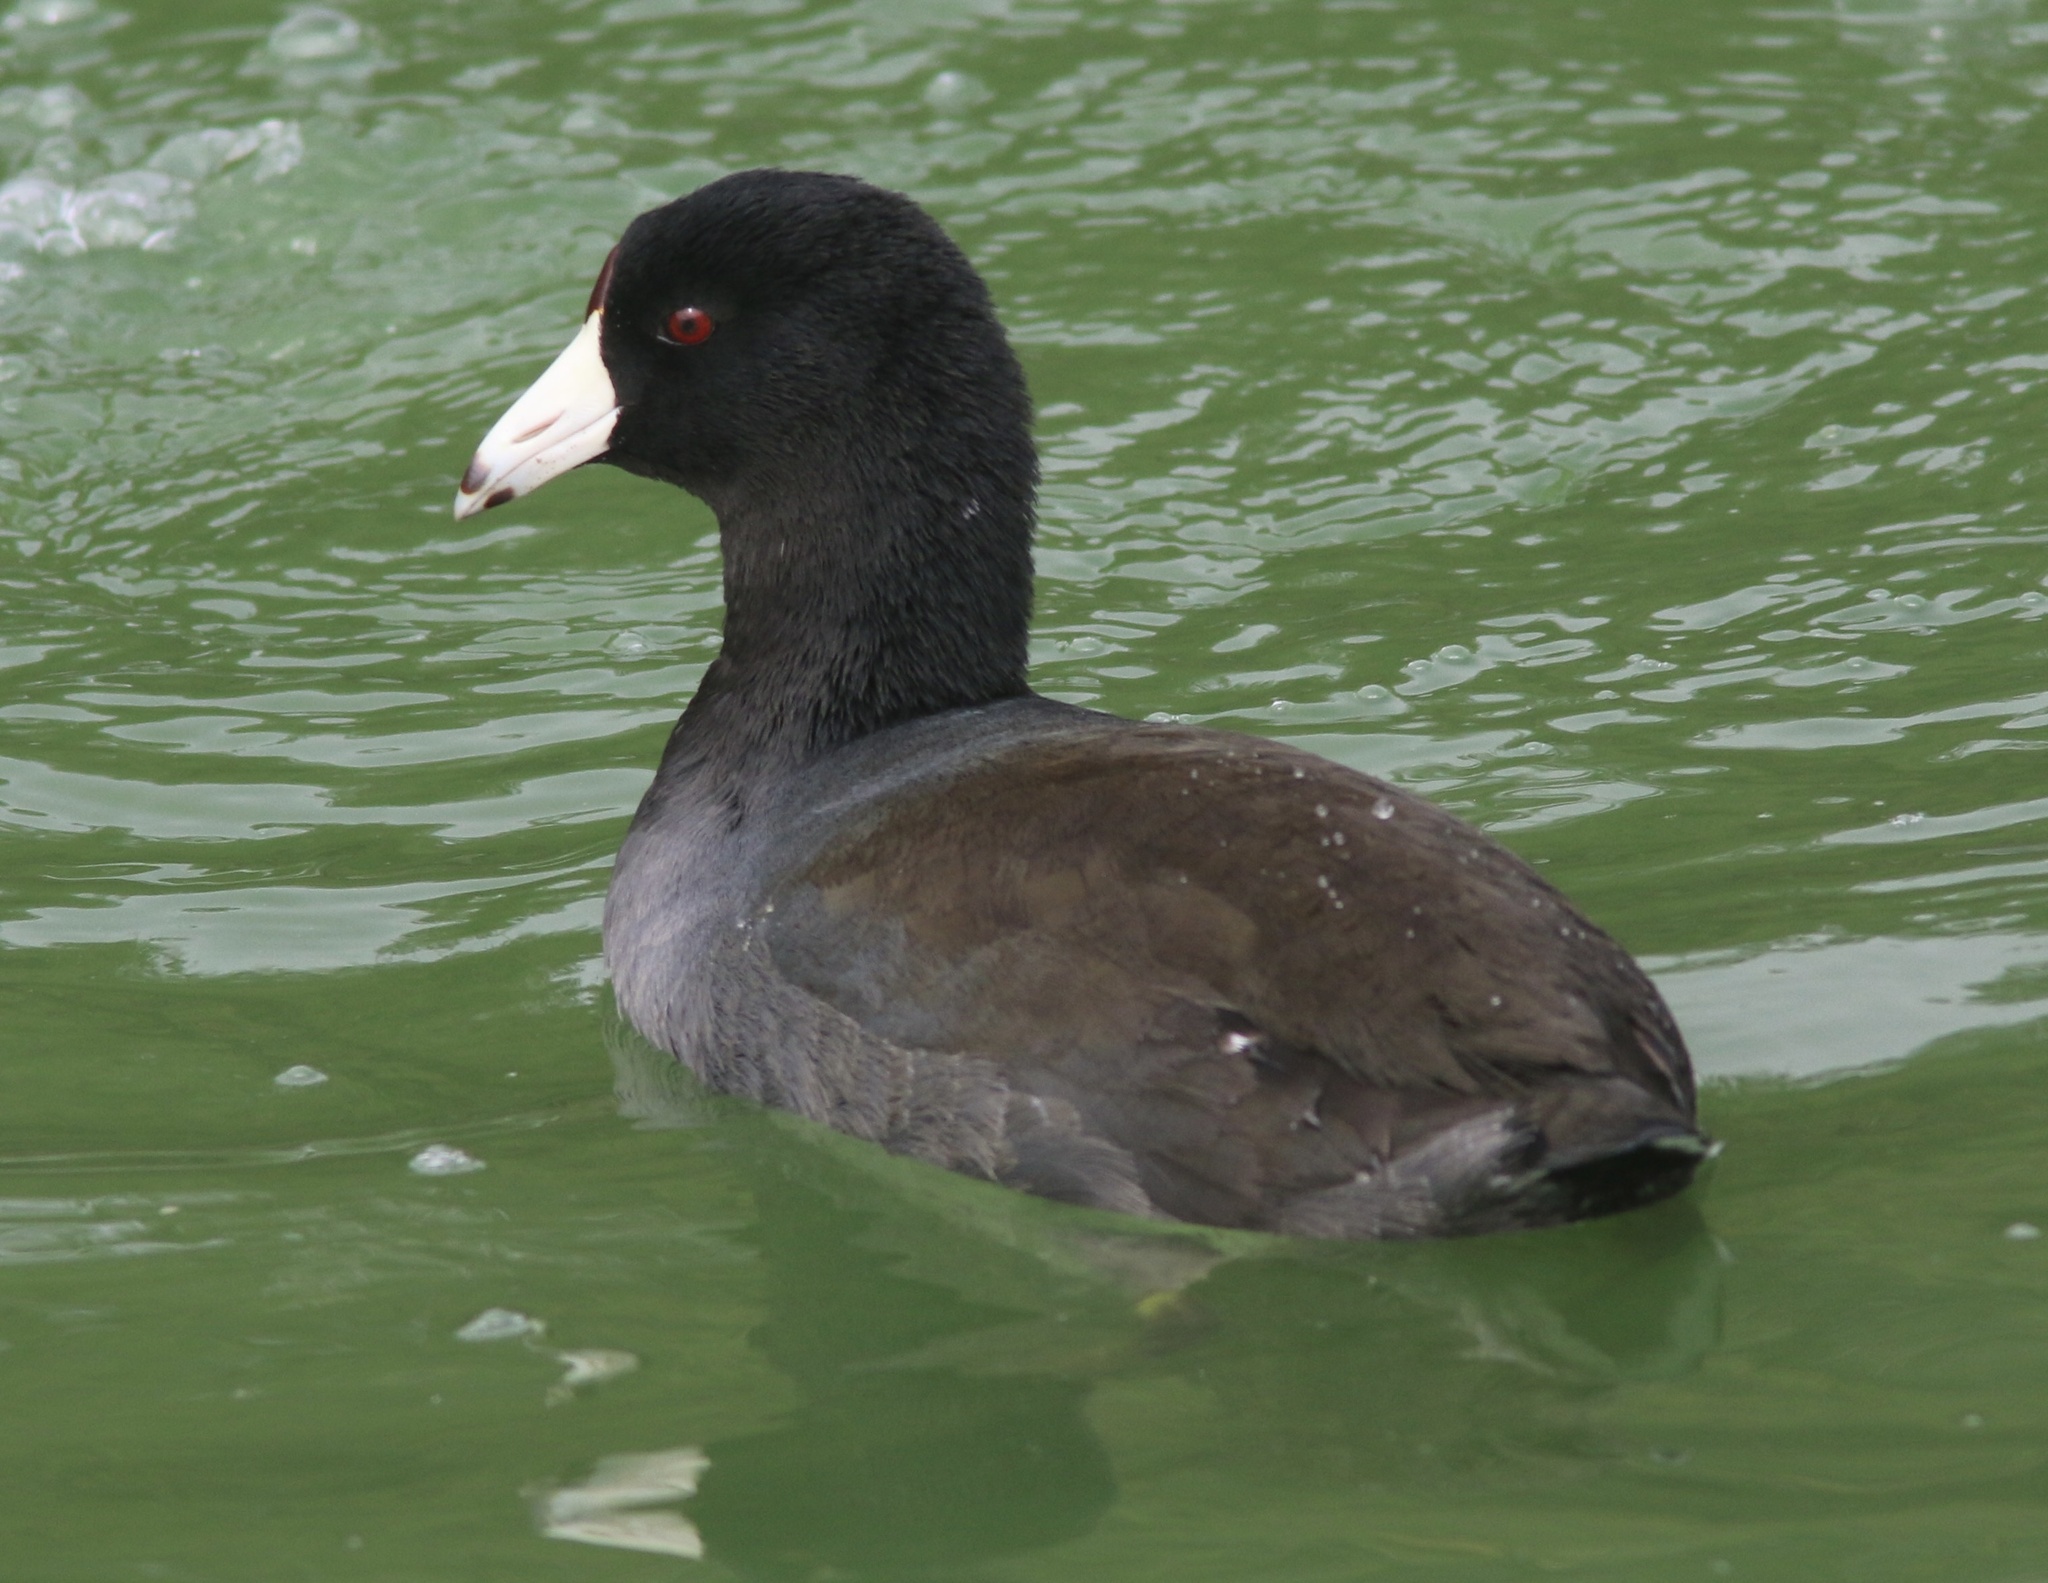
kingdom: Animalia
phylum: Chordata
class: Aves
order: Gruiformes
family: Rallidae
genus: Fulica
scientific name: Fulica americana
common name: American coot
